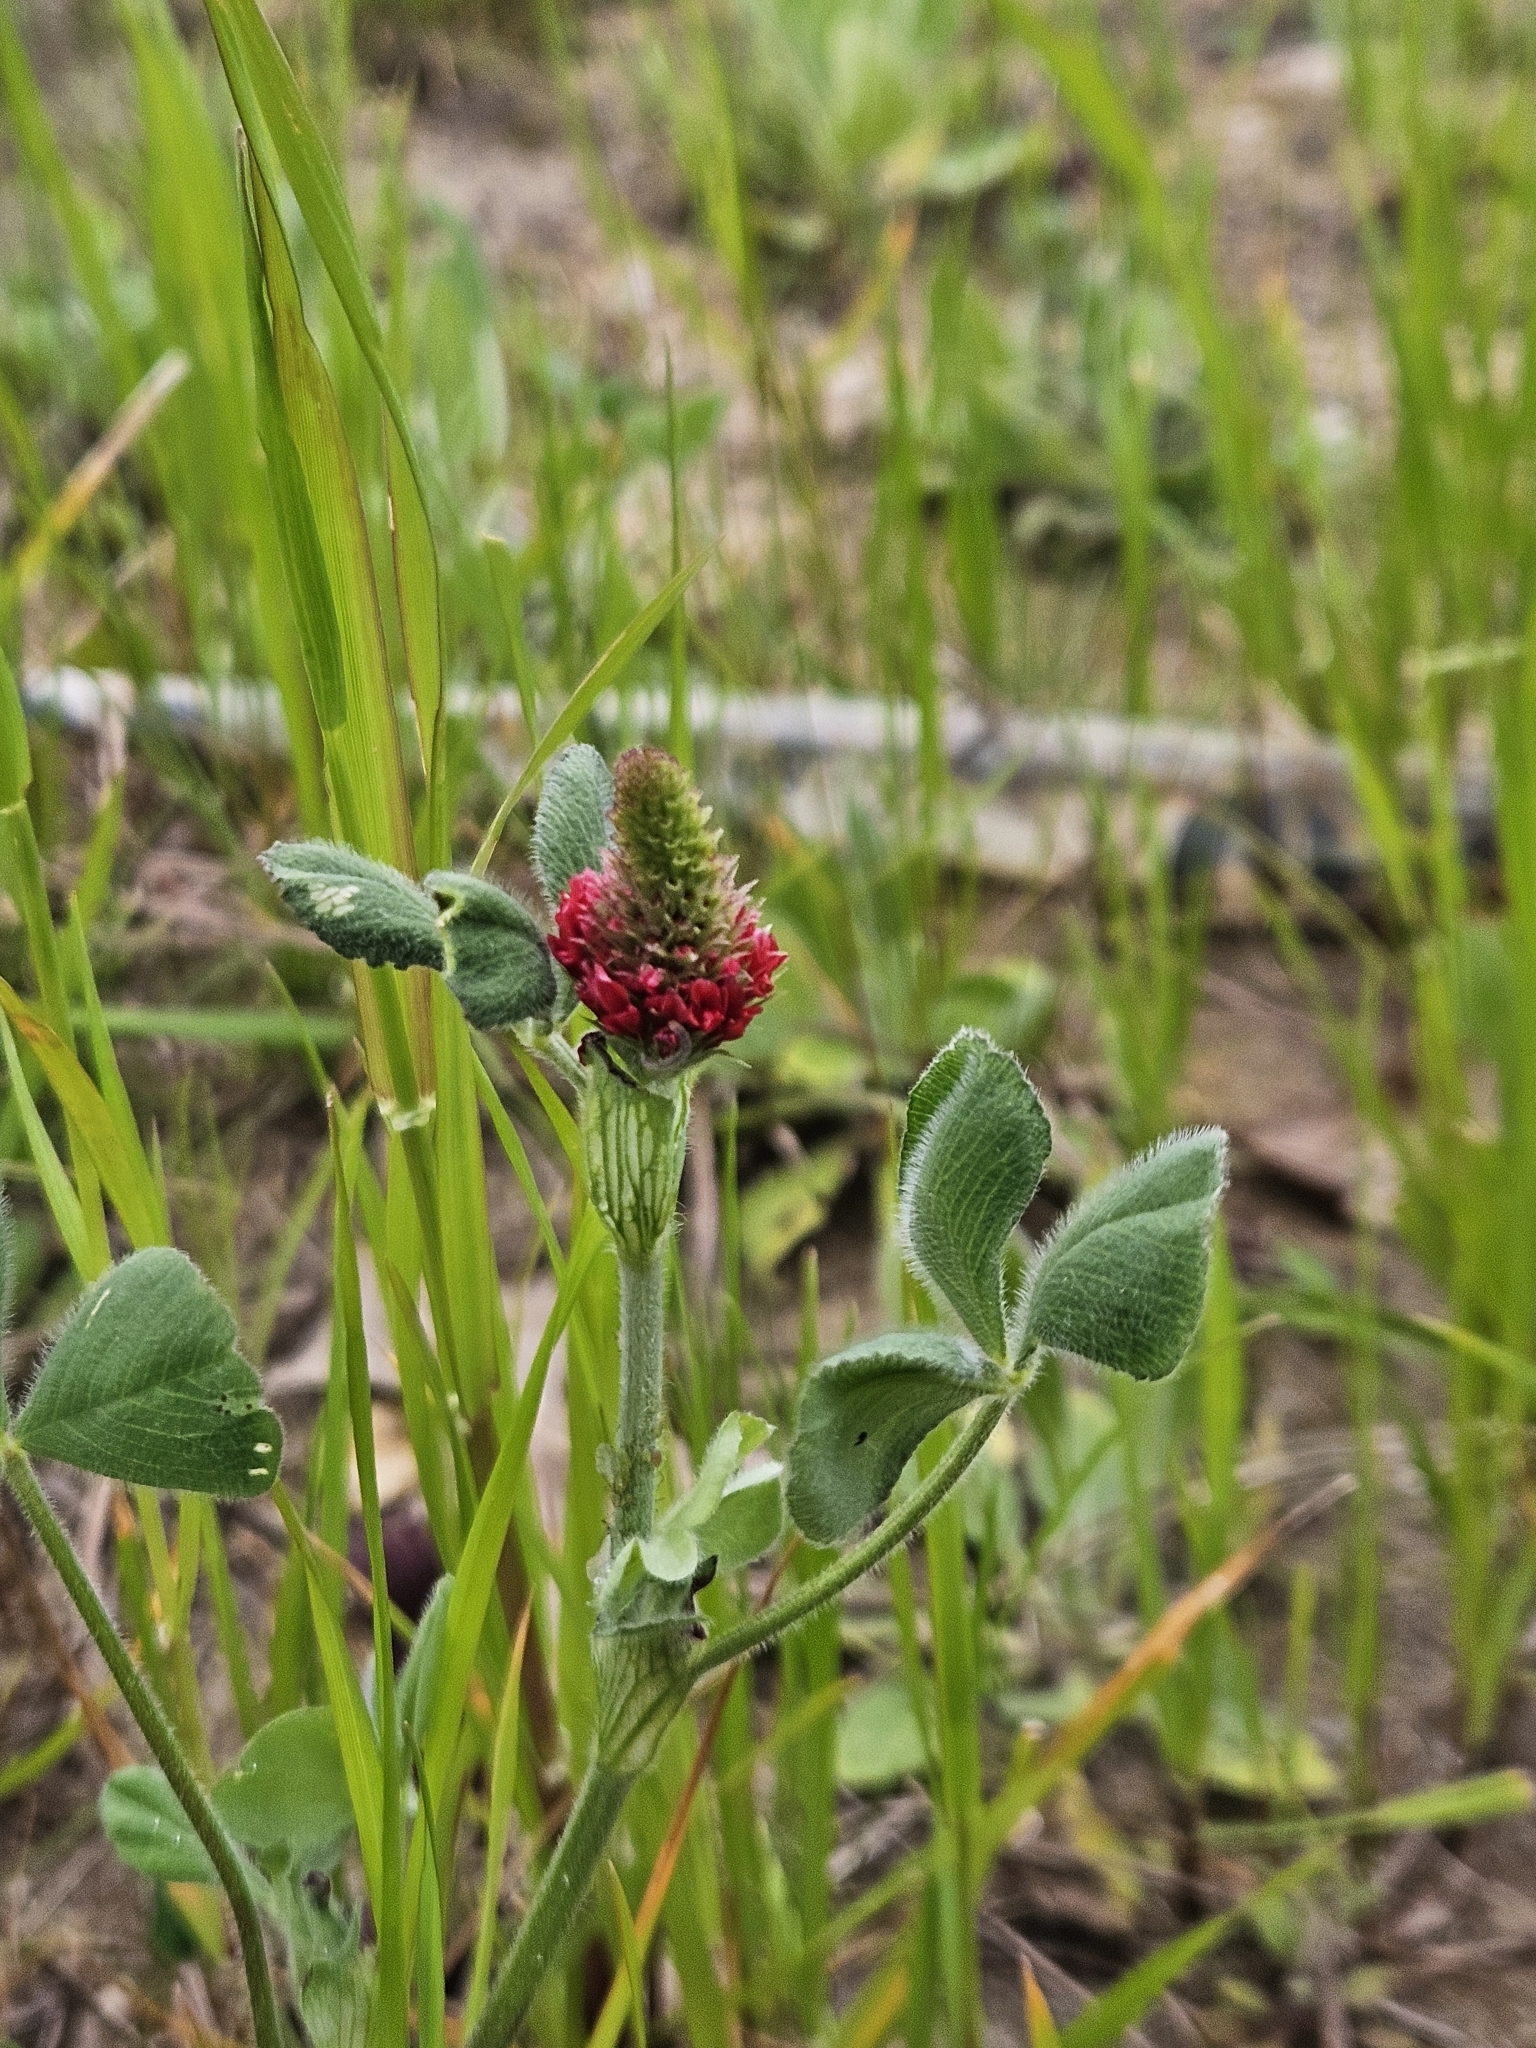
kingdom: Plantae
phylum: Tracheophyta
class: Magnoliopsida
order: Fabales
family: Fabaceae
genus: Trifolium
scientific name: Trifolium incarnatum
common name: Crimson clover
